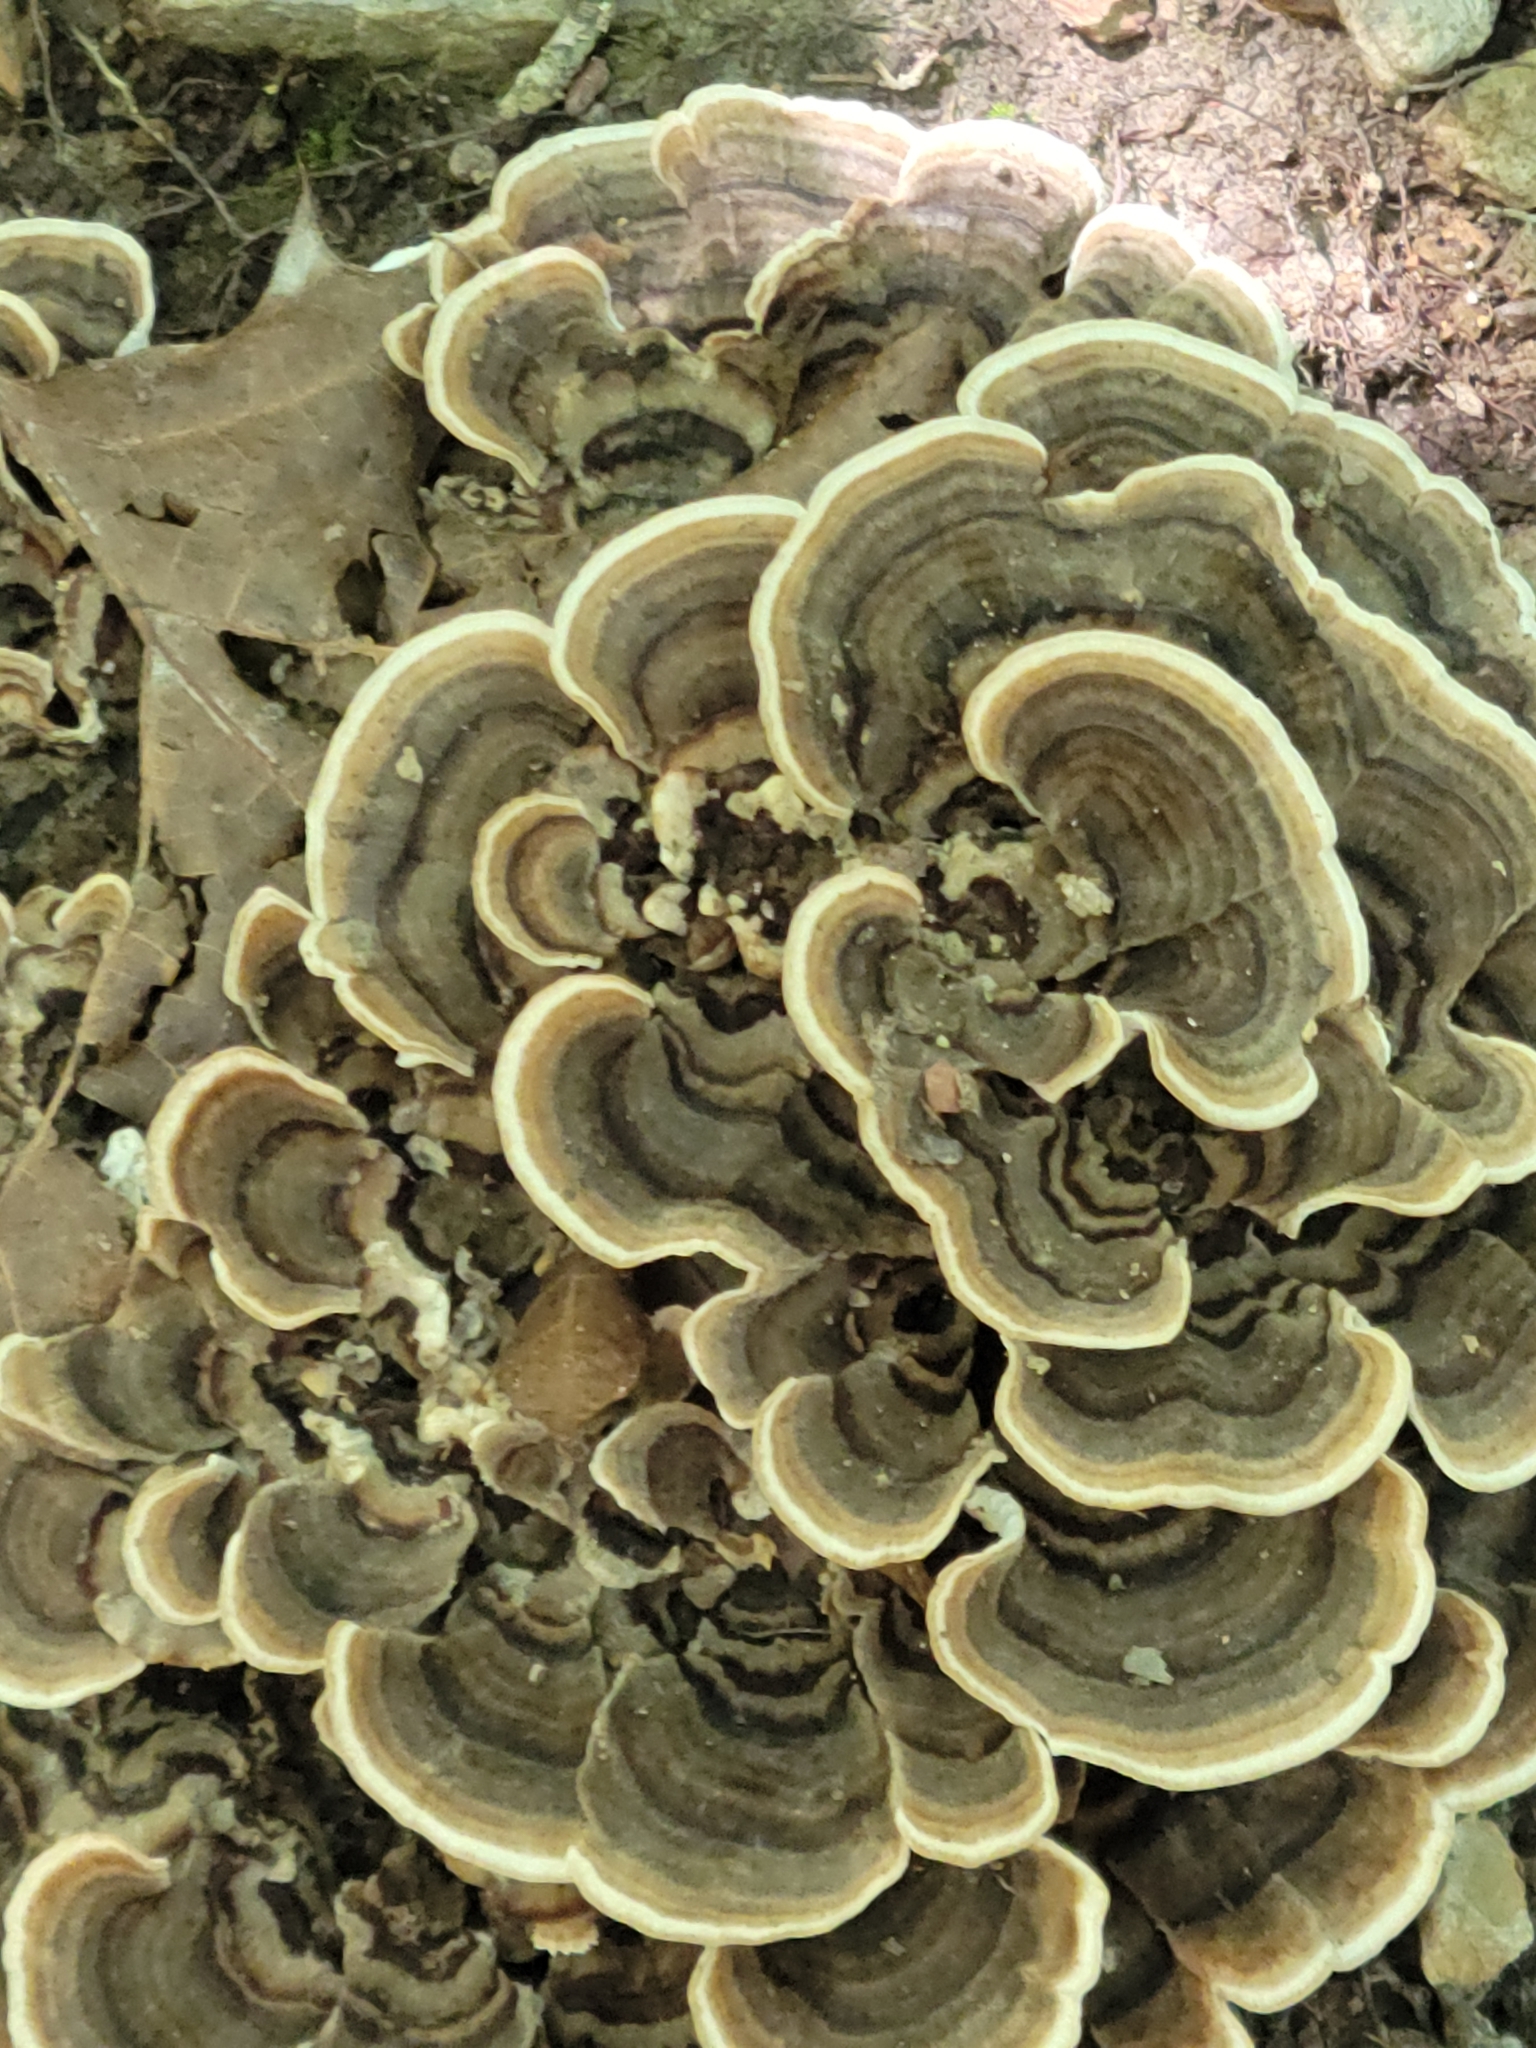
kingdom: Fungi
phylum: Basidiomycota
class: Agaricomycetes
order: Polyporales
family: Polyporaceae
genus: Trametes
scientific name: Trametes versicolor
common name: Turkeytail
